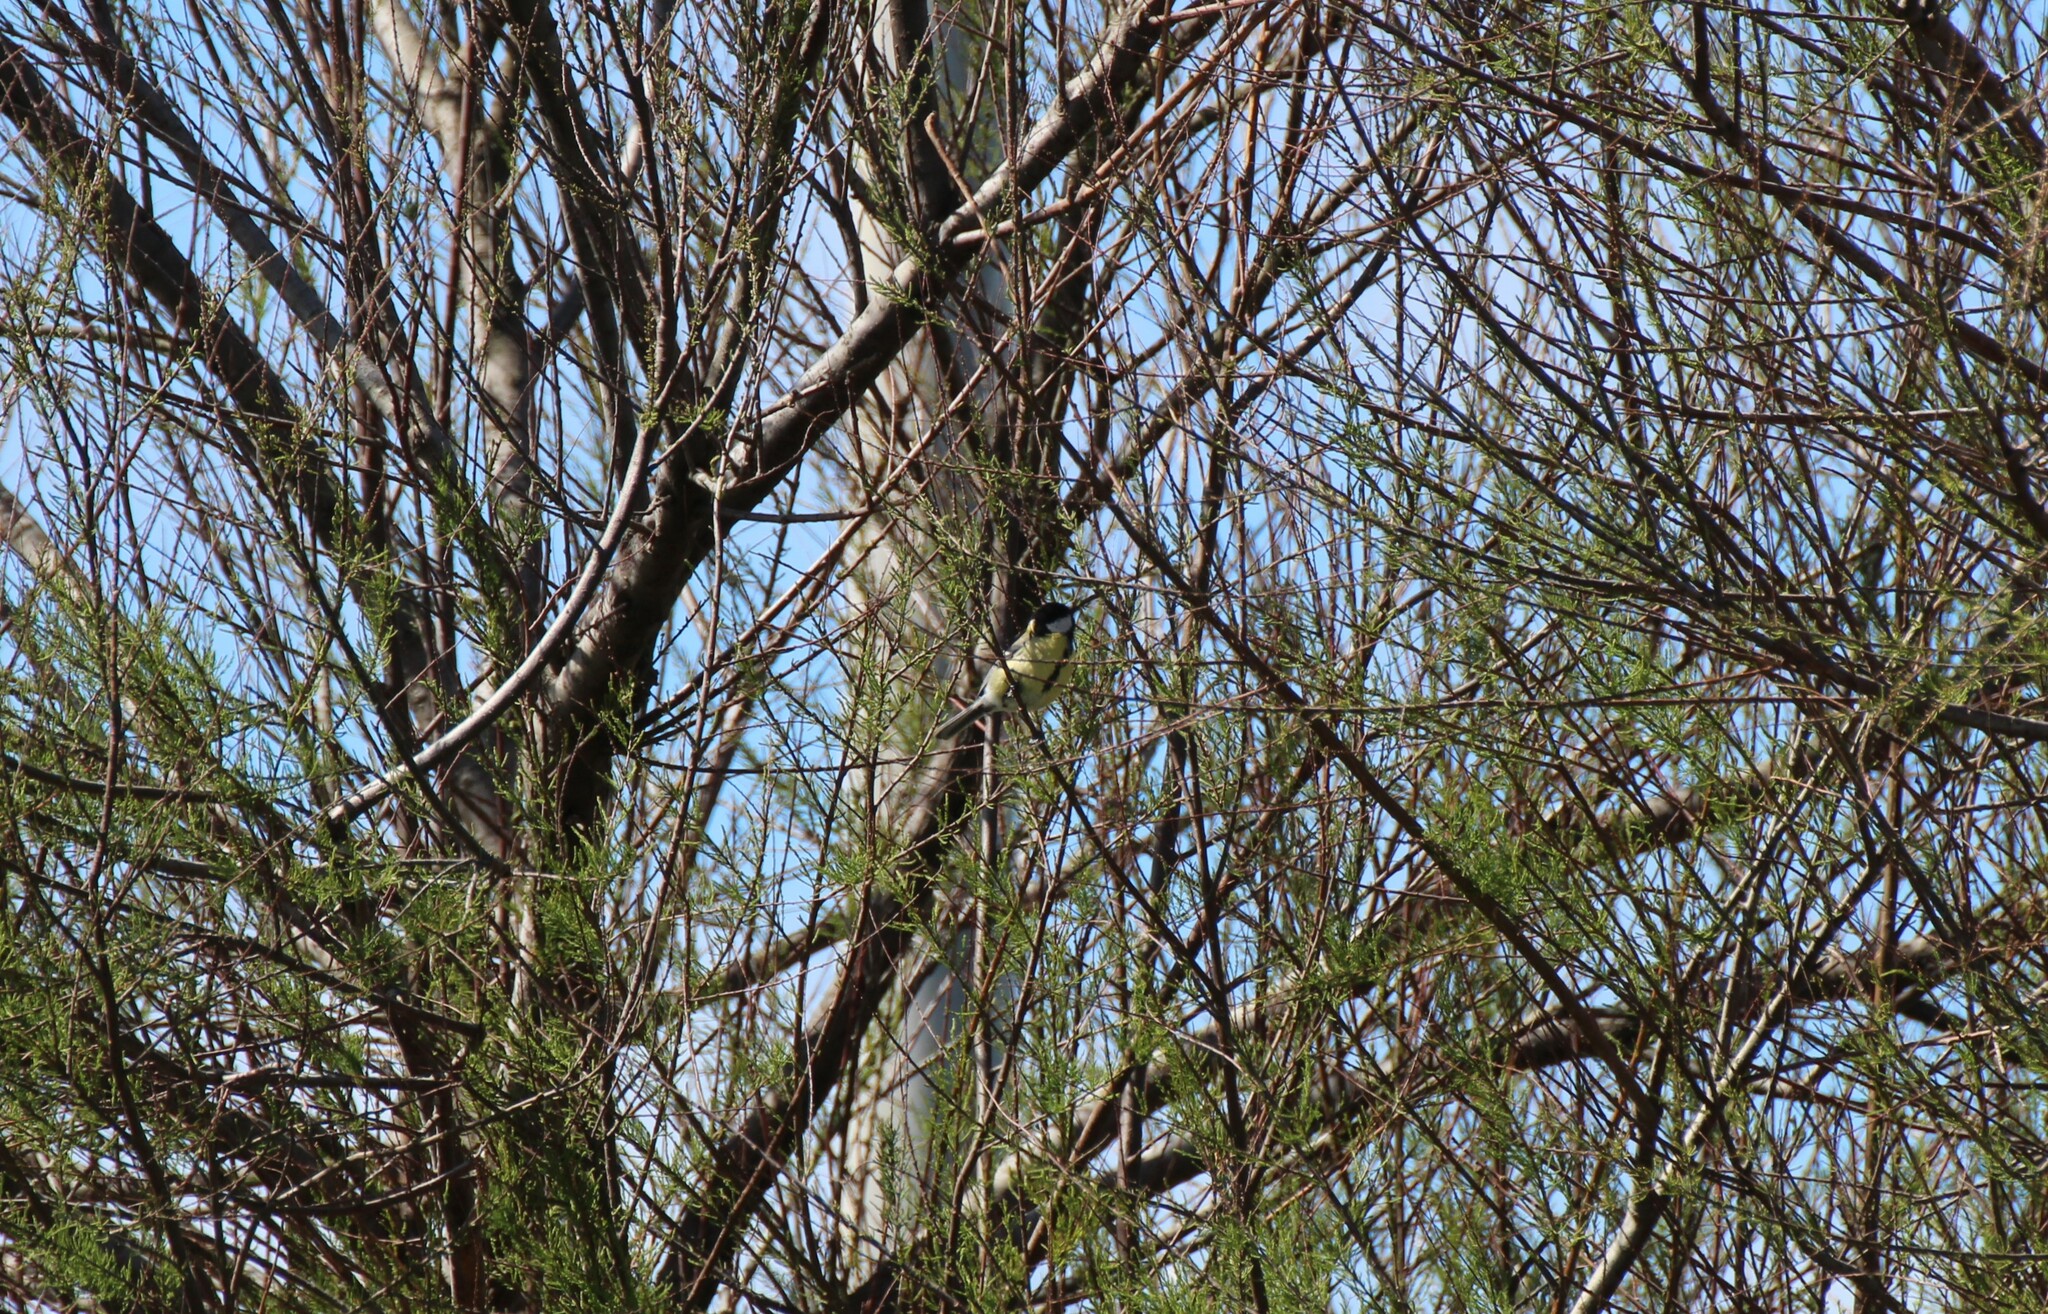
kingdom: Animalia
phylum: Chordata
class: Aves
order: Passeriformes
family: Paridae
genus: Parus
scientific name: Parus major
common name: Great tit
